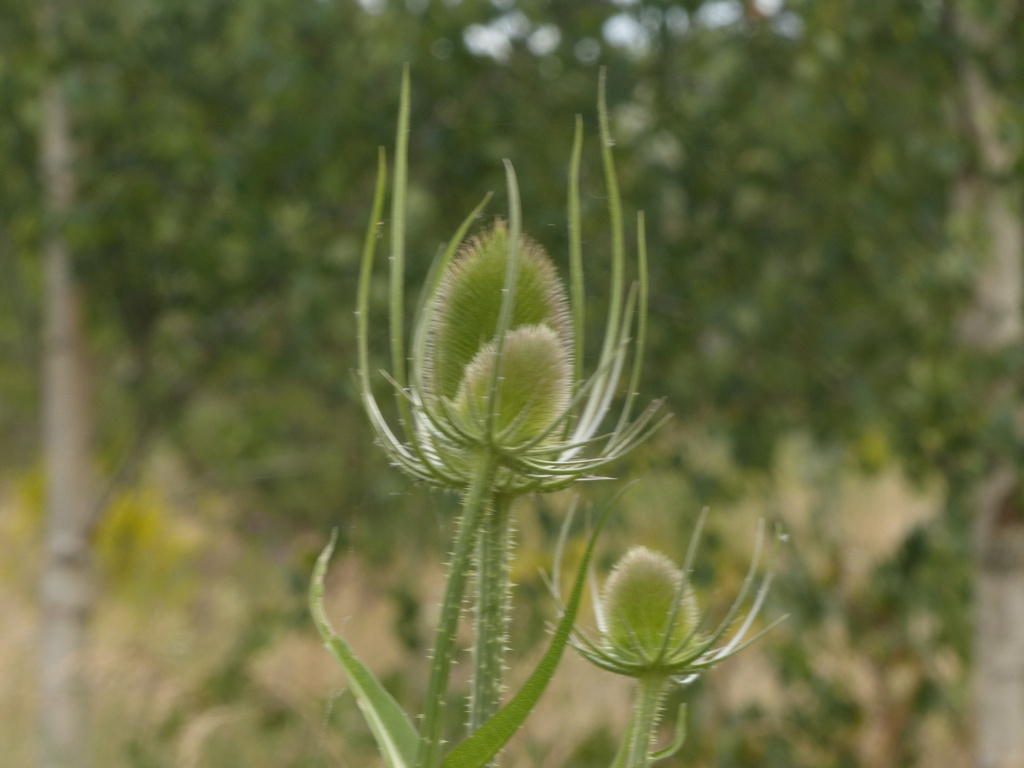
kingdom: Plantae
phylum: Tracheophyta
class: Magnoliopsida
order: Dipsacales
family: Caprifoliaceae
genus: Dipsacus
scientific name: Dipsacus fullonum
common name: Teasel
